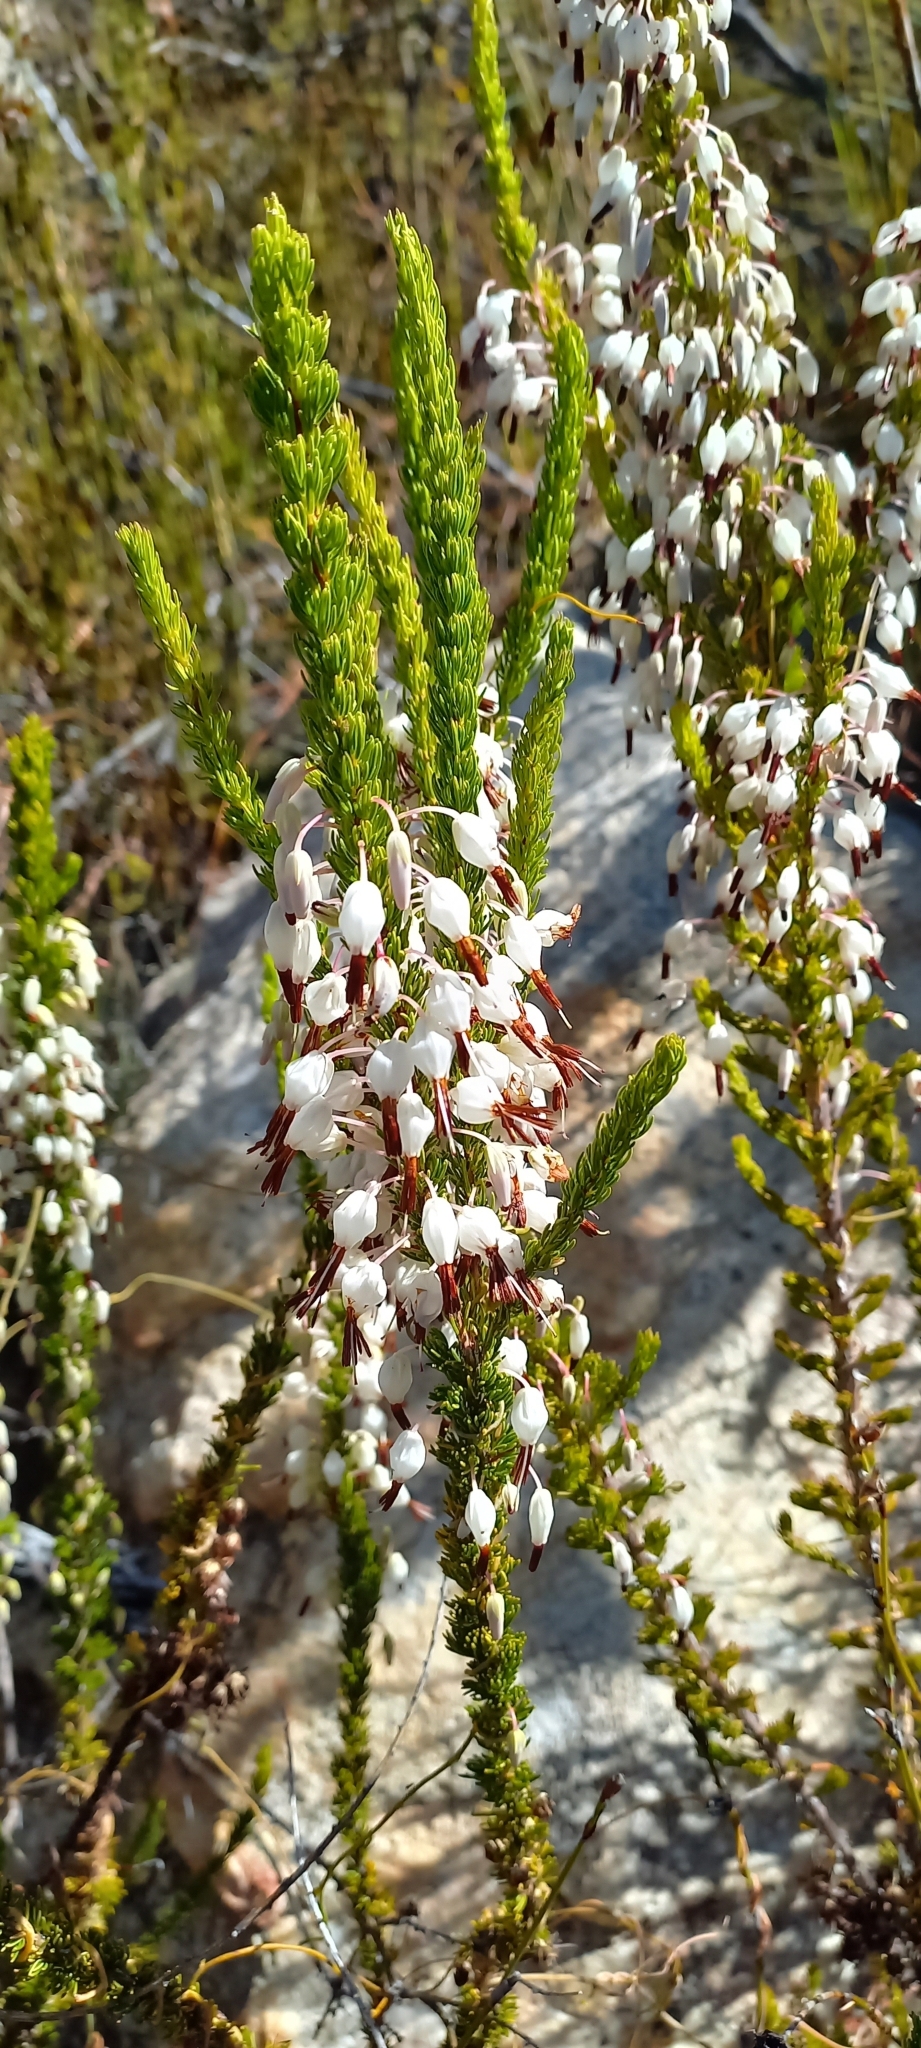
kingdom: Plantae
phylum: Tracheophyta
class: Magnoliopsida
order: Ericales
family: Ericaceae
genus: Erica
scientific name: Erica plukenetii
